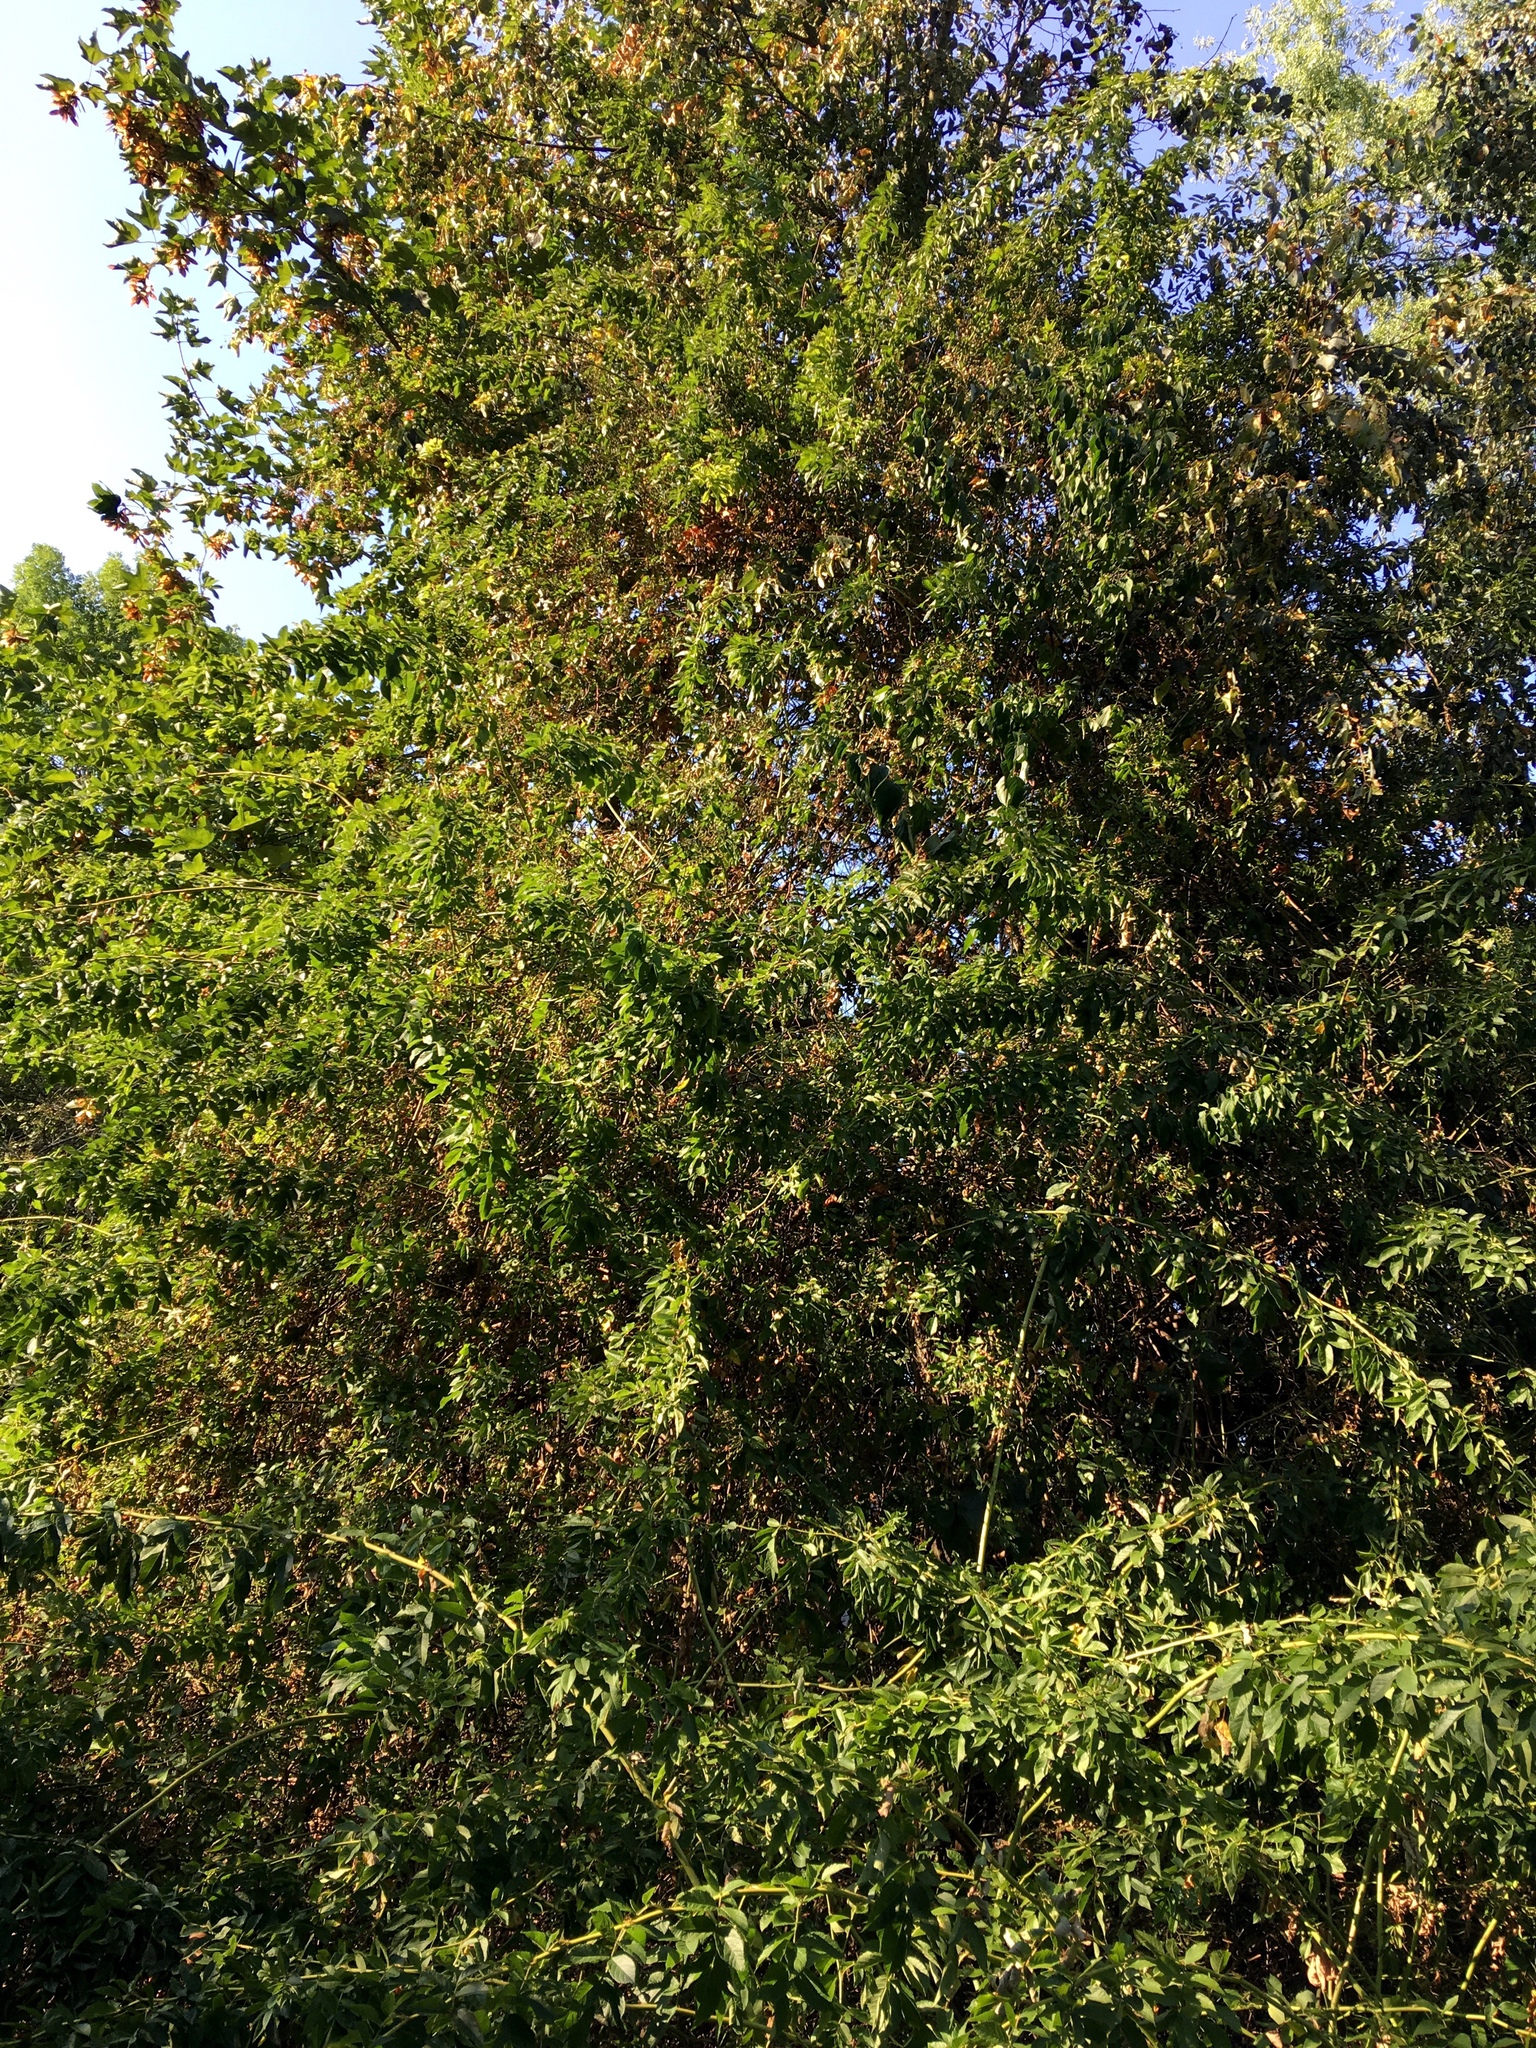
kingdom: Plantae
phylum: Tracheophyta
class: Magnoliopsida
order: Rosales
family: Rosaceae
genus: Rosa
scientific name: Rosa multiflora
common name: Multiflora rose
